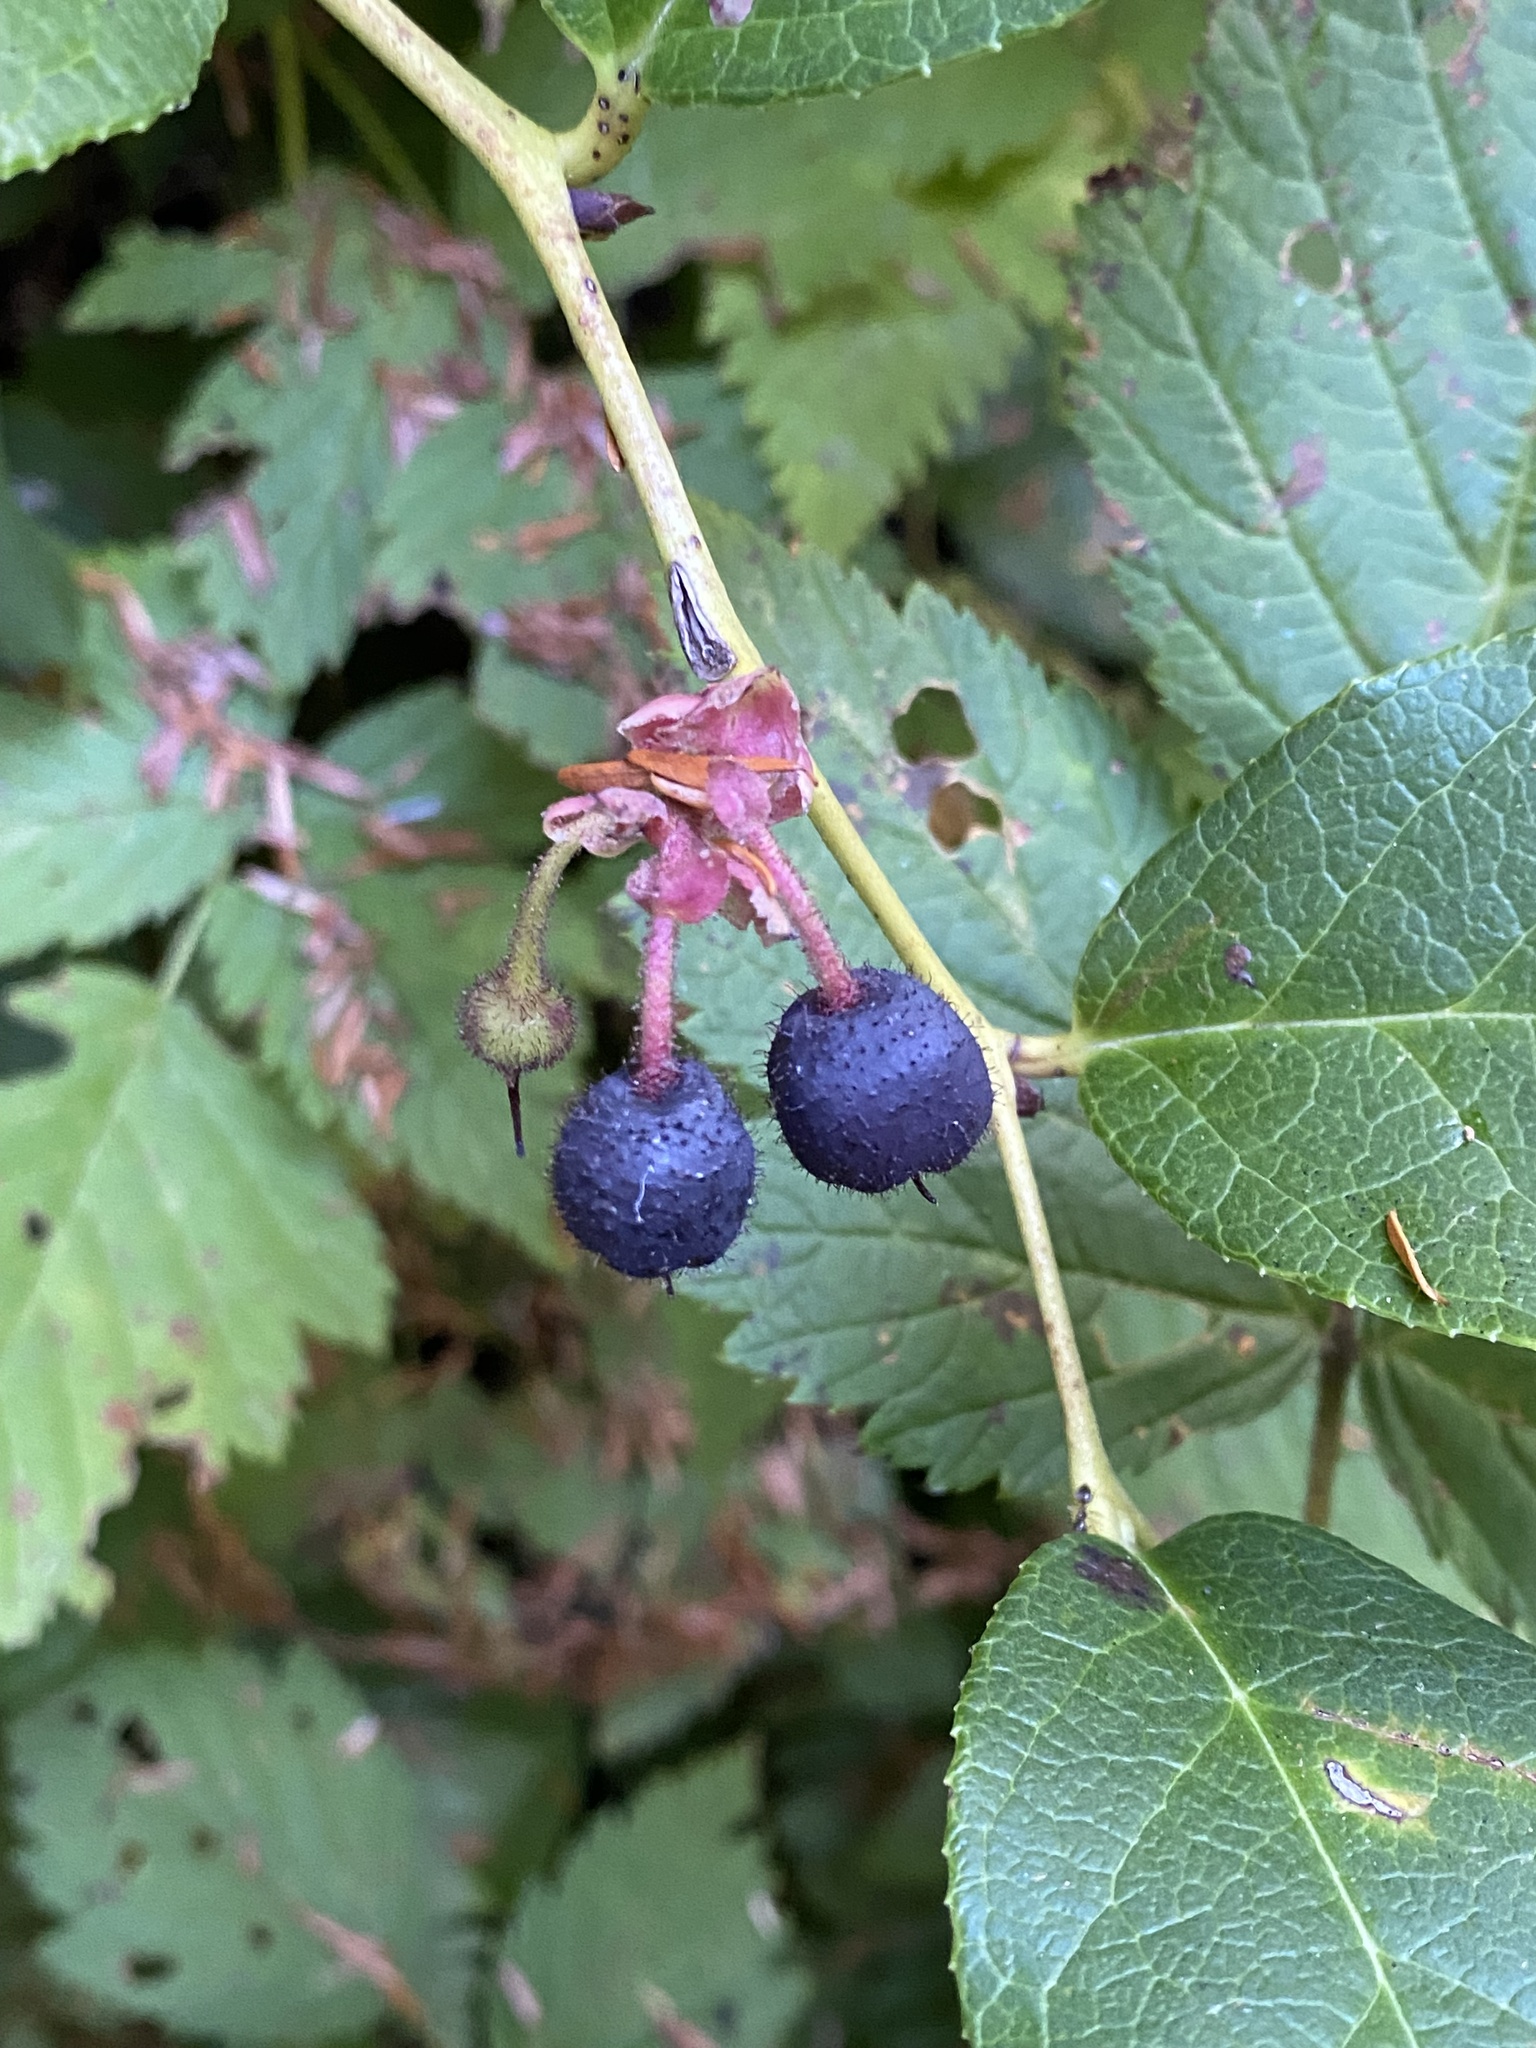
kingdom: Plantae
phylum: Tracheophyta
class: Magnoliopsida
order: Ericales
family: Ericaceae
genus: Gaultheria
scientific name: Gaultheria shallon
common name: Shallon
